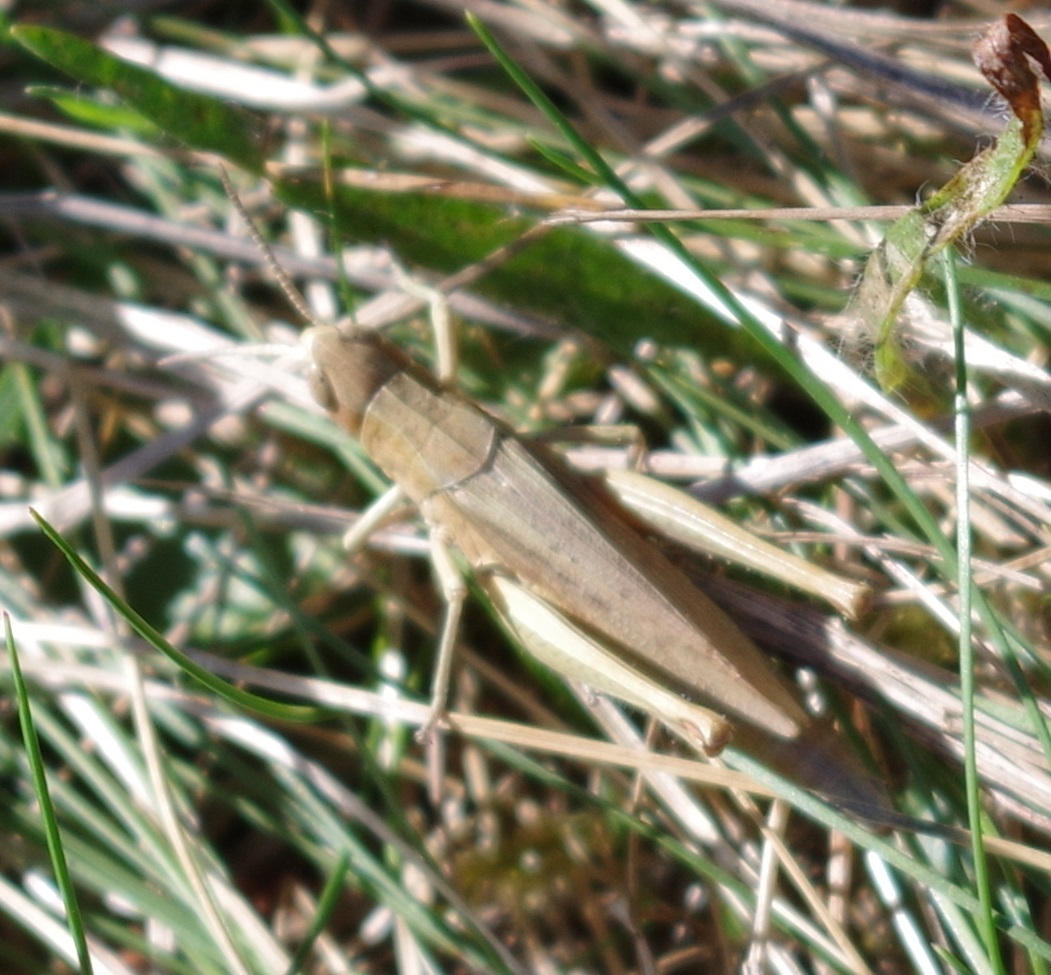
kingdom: Animalia
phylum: Arthropoda
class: Insecta
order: Orthoptera
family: Acrididae
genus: Chorthippus
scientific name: Chorthippus dorsatus
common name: Steppe grasshopper
